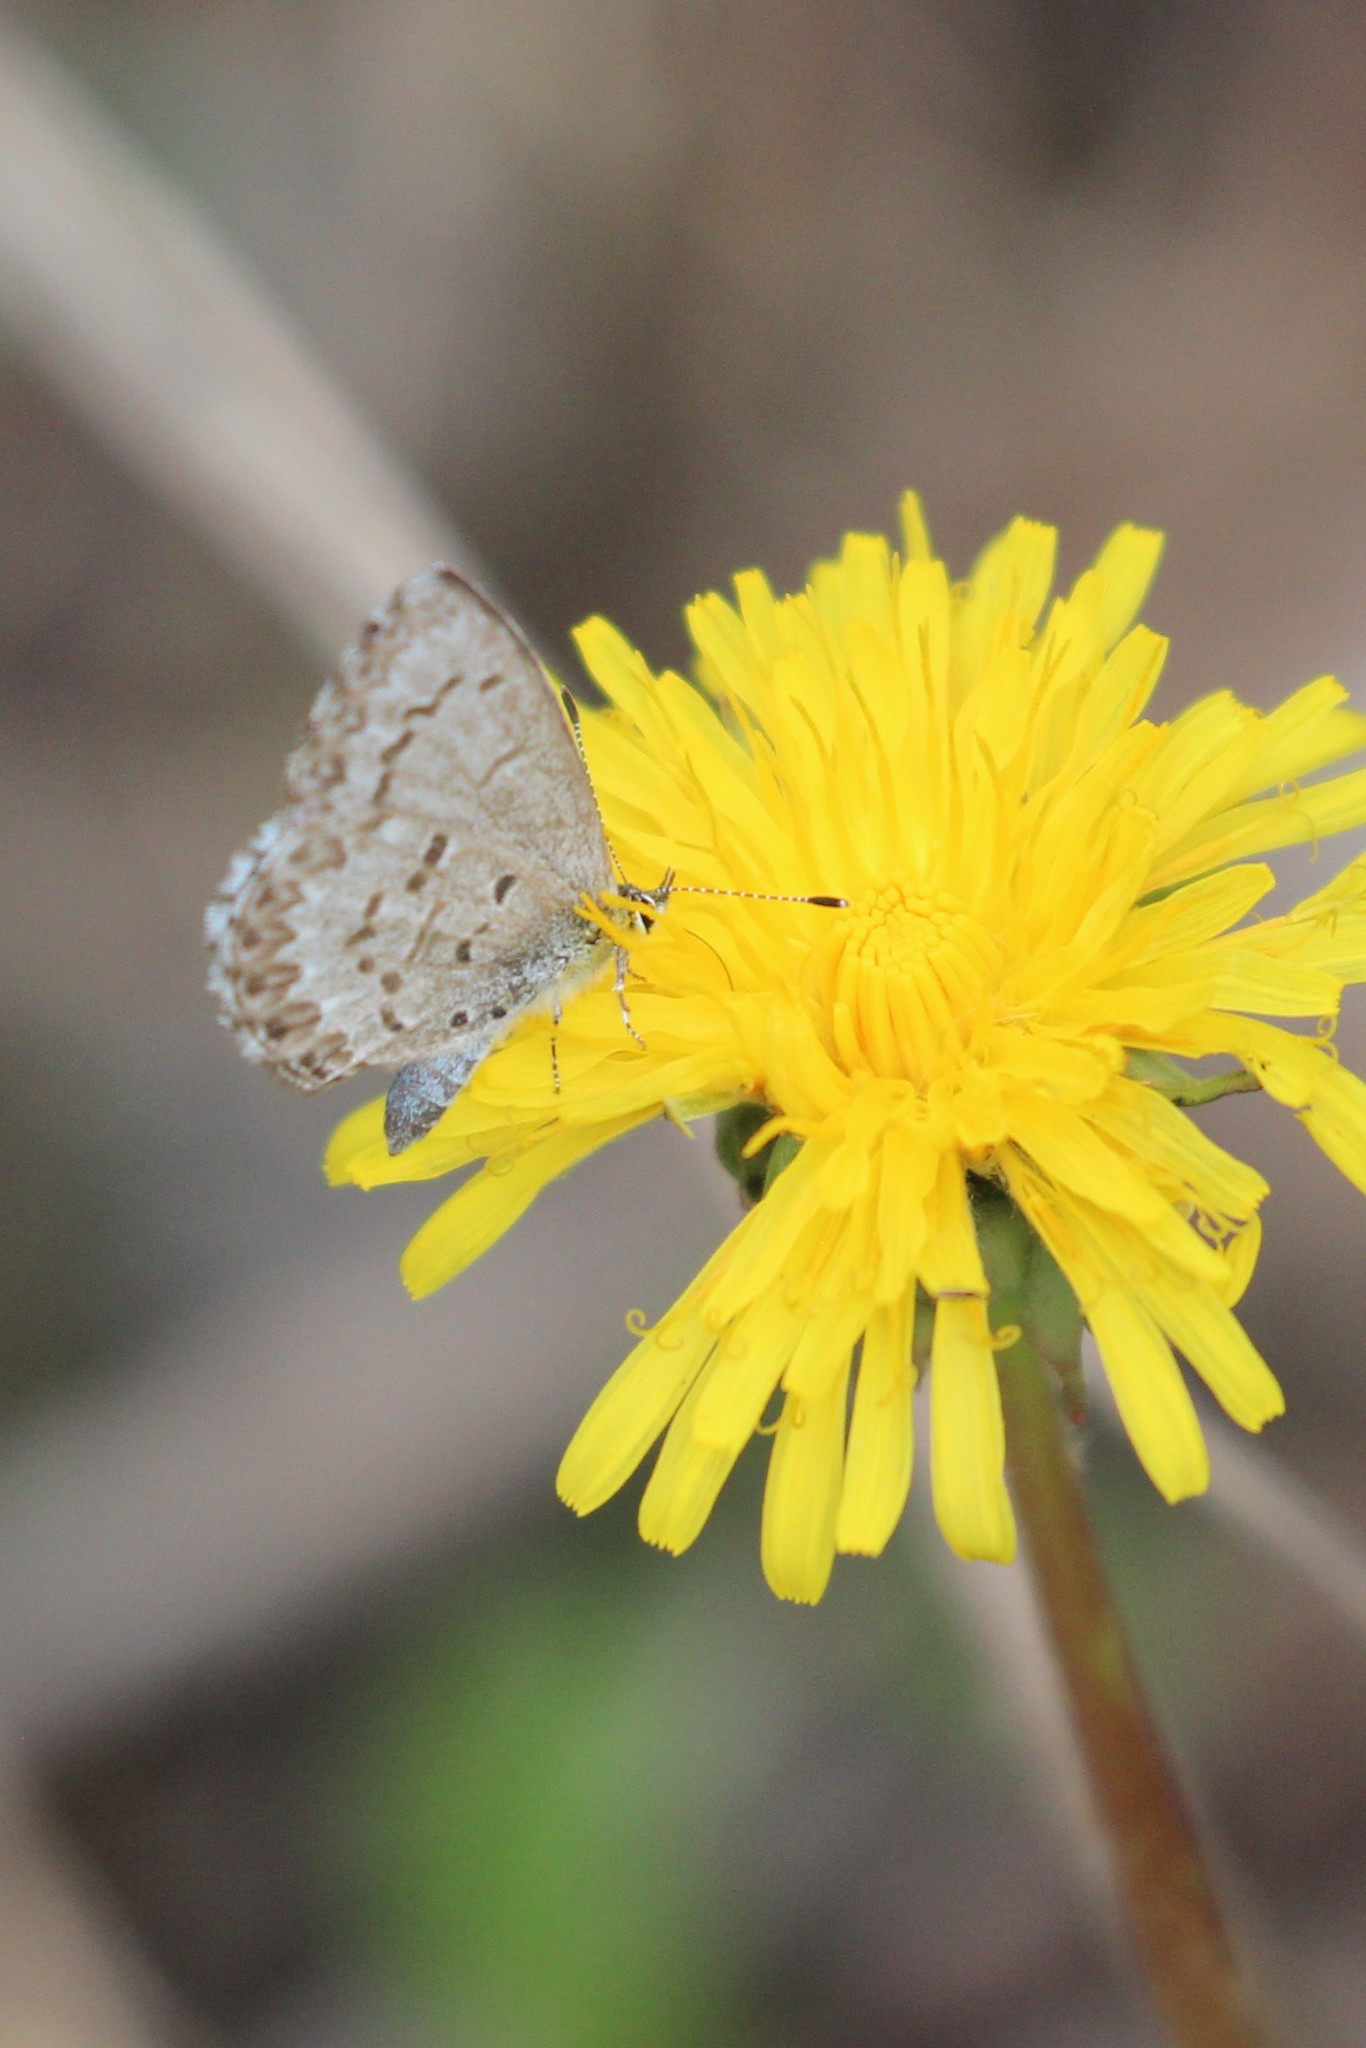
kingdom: Animalia
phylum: Arthropoda
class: Insecta
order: Lepidoptera
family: Lycaenidae
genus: Celastrina
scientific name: Celastrina lucia
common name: Lucia azure
